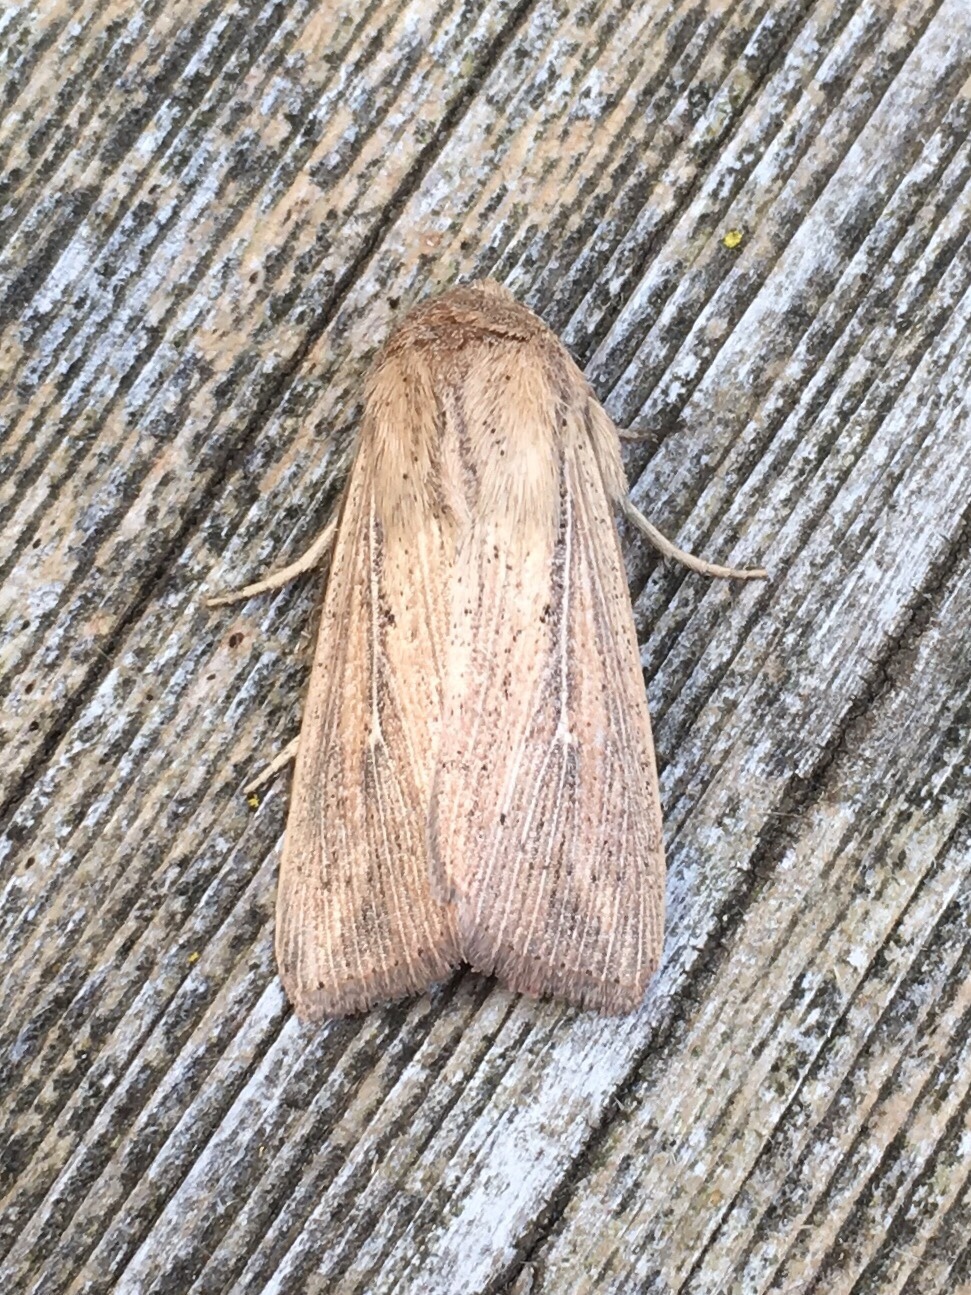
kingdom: Animalia
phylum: Arthropoda
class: Insecta
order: Lepidoptera
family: Noctuidae
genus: Leucania
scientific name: Leucania linda
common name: Linda's wainscot
